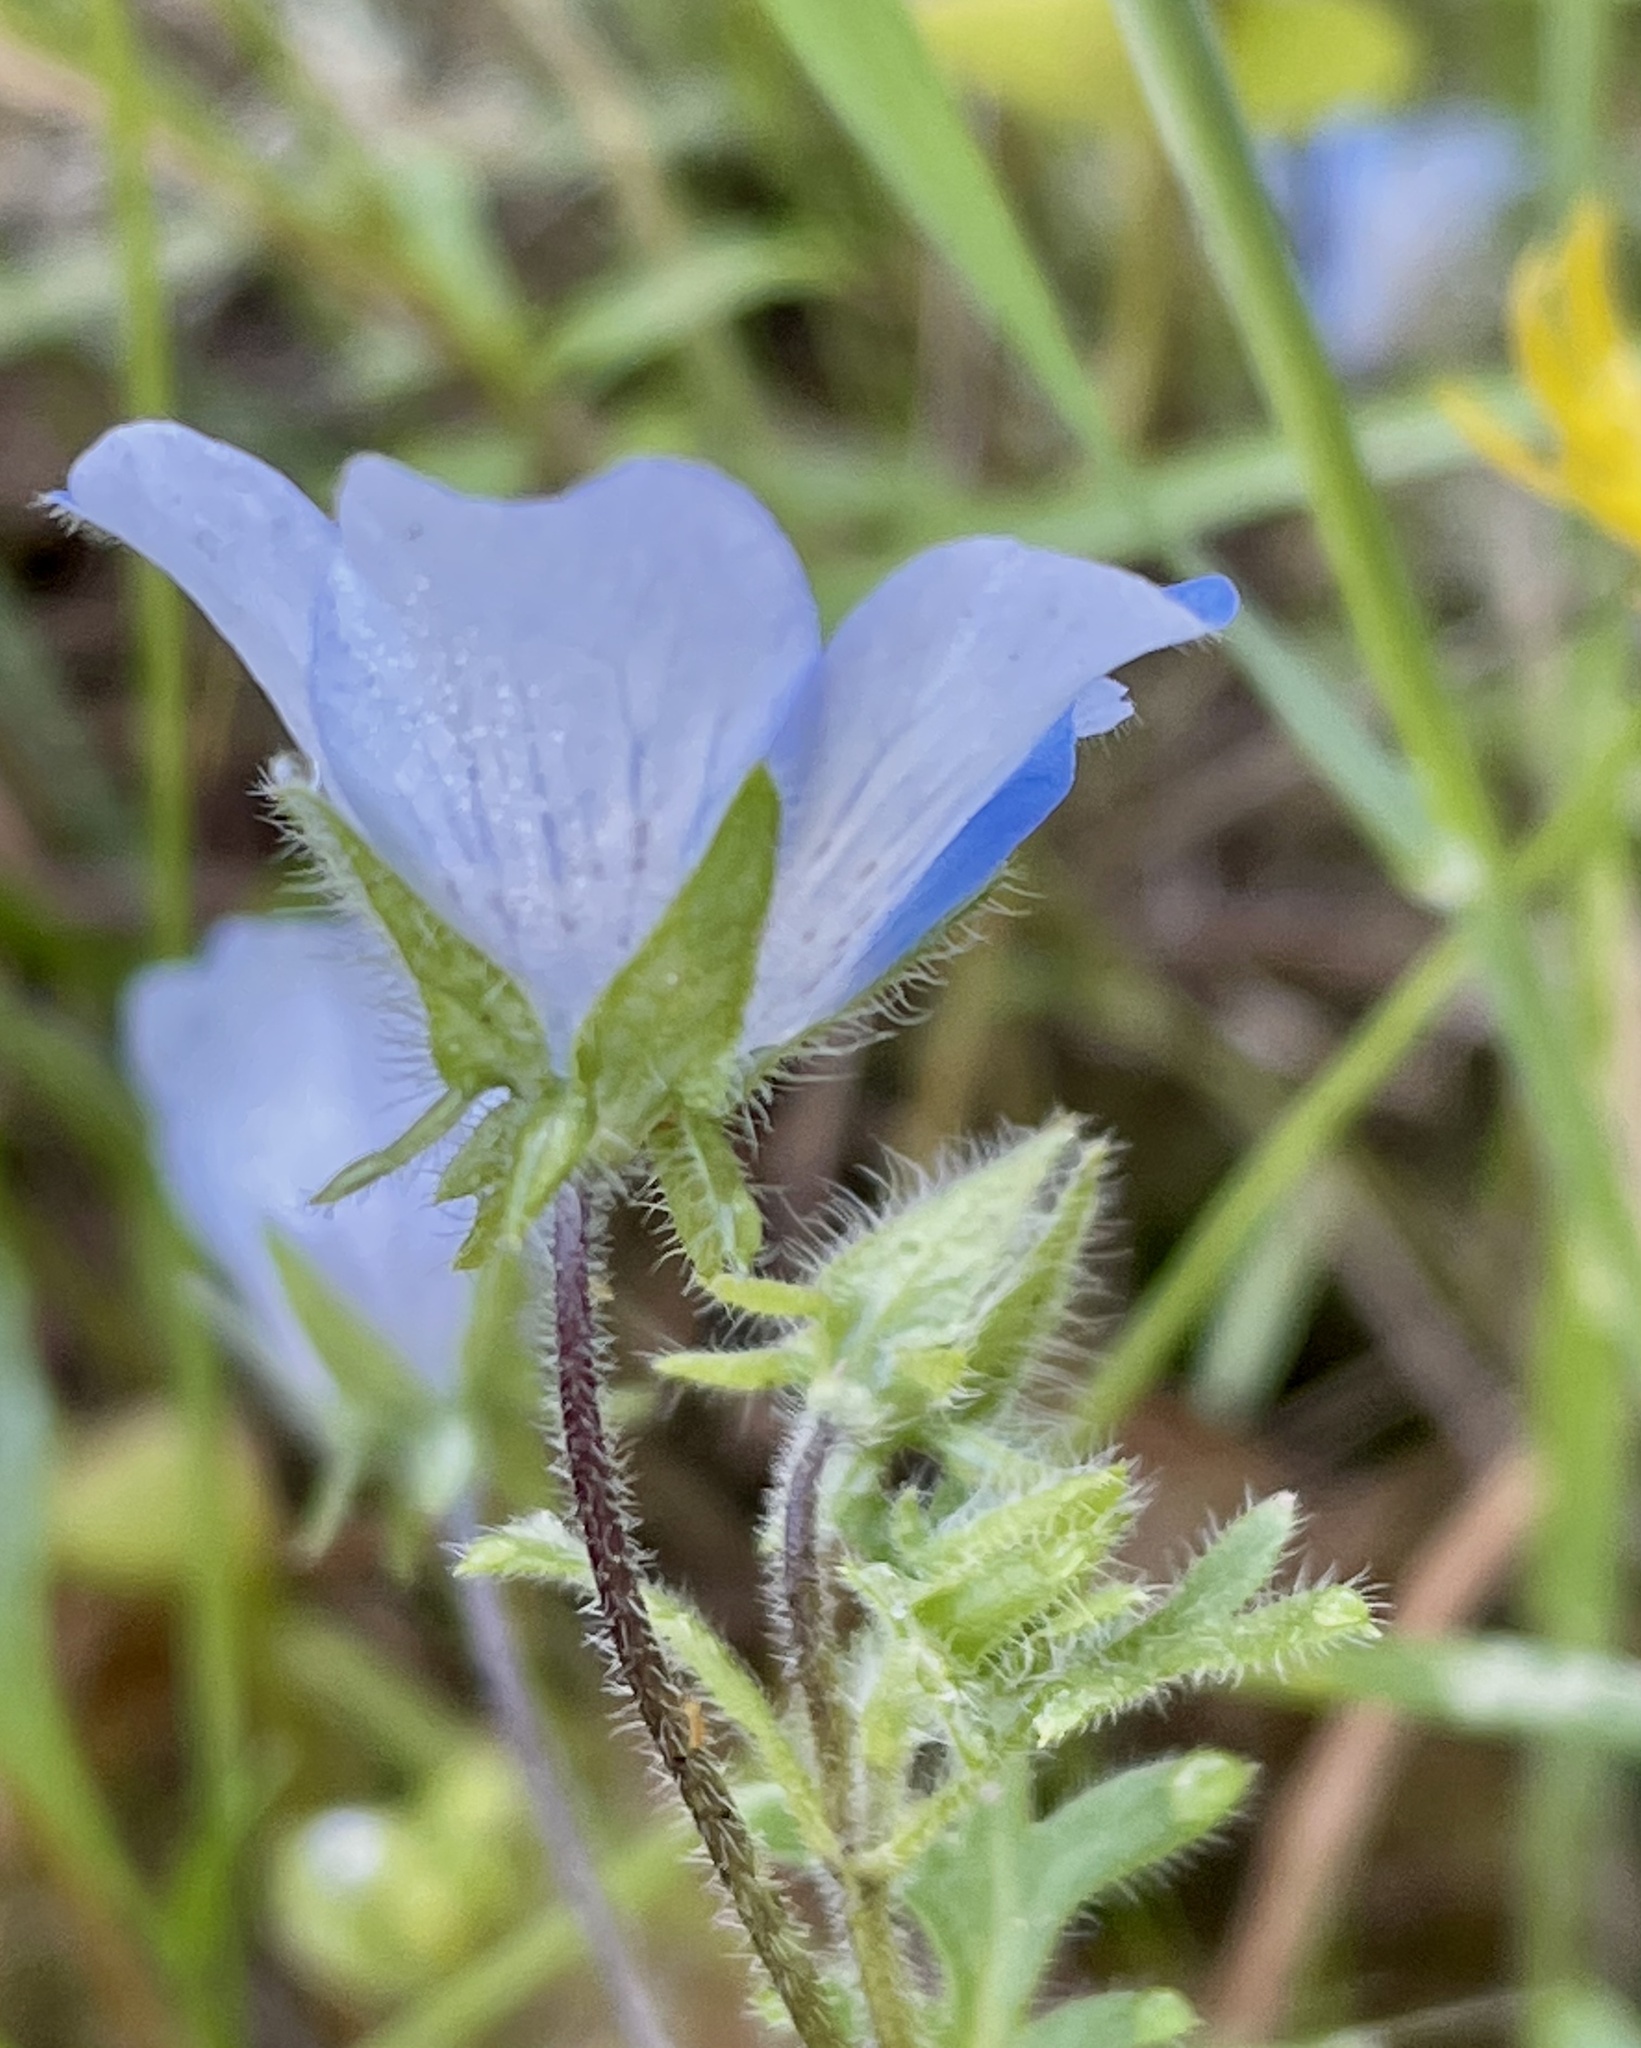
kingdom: Plantae
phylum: Tracheophyta
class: Magnoliopsida
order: Boraginales
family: Hydrophyllaceae
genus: Nemophila
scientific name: Nemophila menziesii
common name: Baby's-blue-eyes
